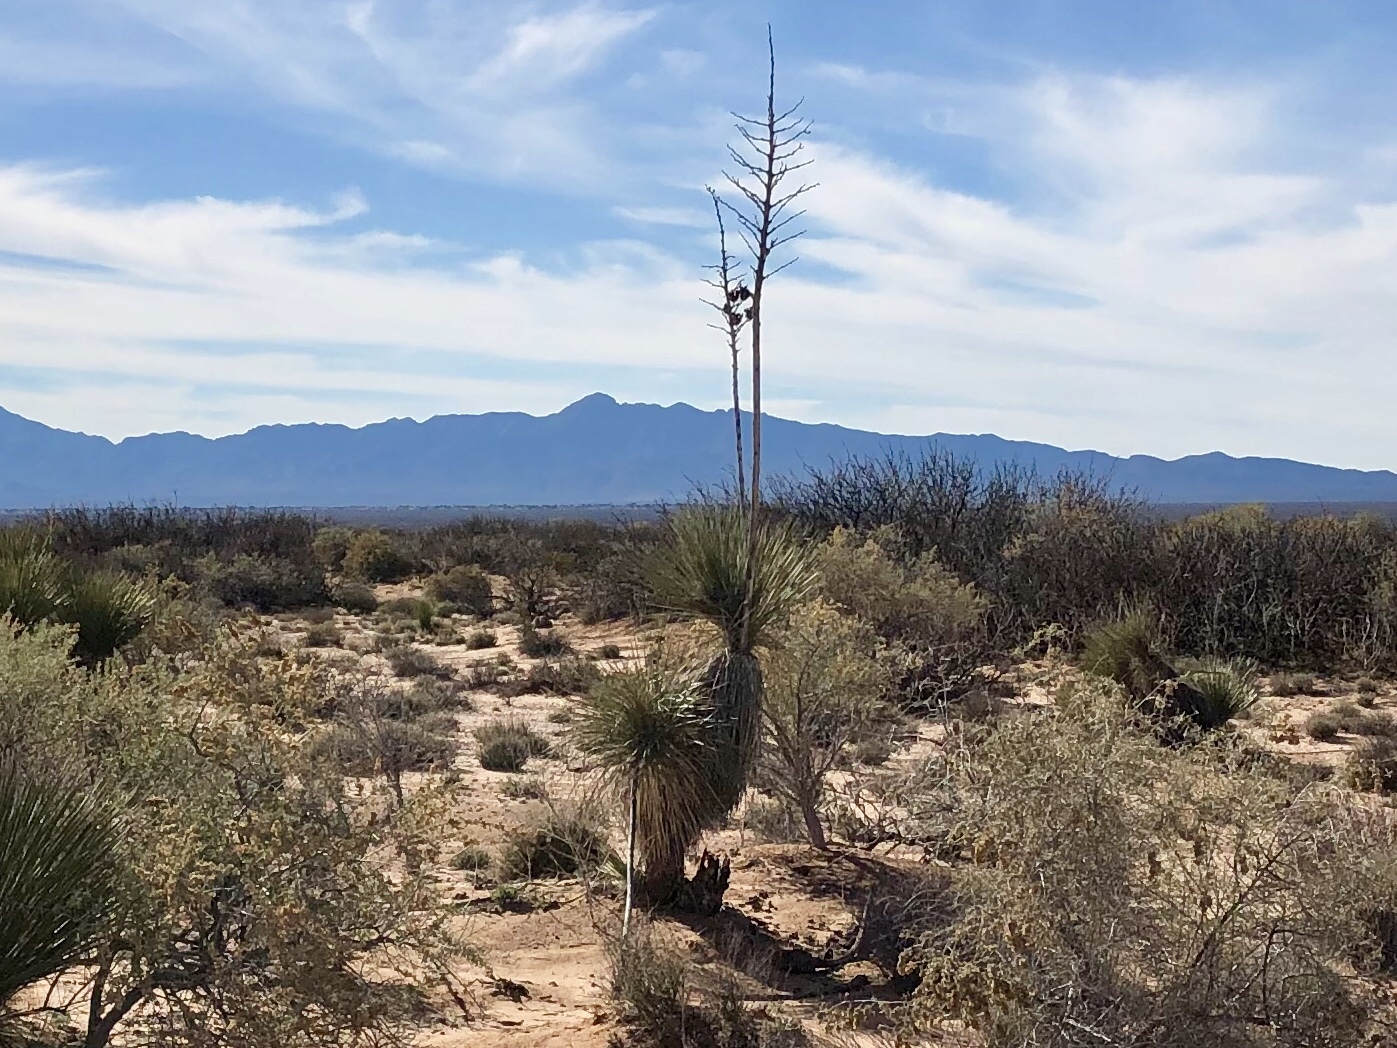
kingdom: Plantae
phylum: Tracheophyta
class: Liliopsida
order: Asparagales
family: Asparagaceae
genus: Yucca
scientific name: Yucca elata
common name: Palmella
